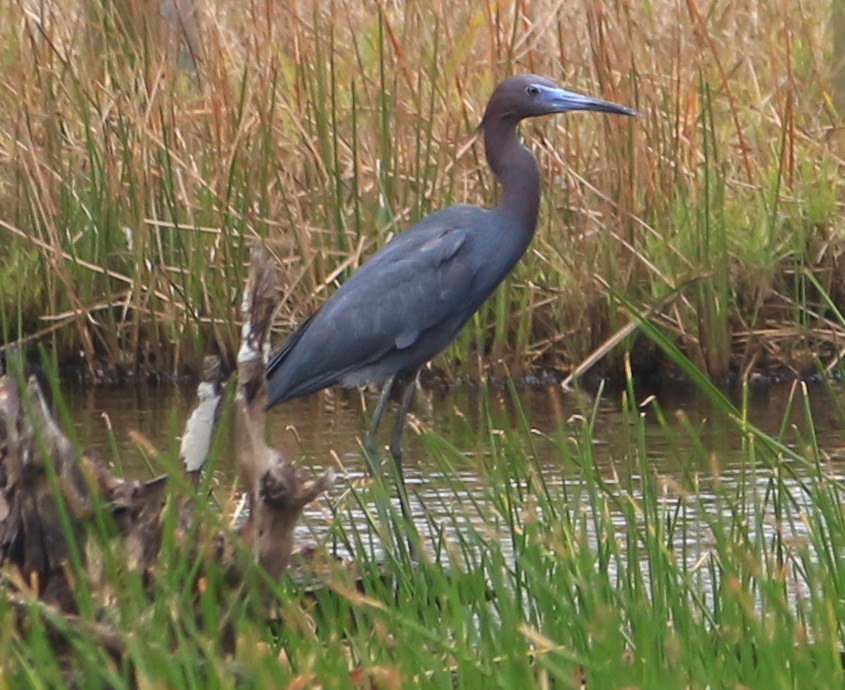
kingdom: Animalia
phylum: Chordata
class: Aves
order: Pelecaniformes
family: Ardeidae
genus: Egretta
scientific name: Egretta caerulea
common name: Little blue heron
